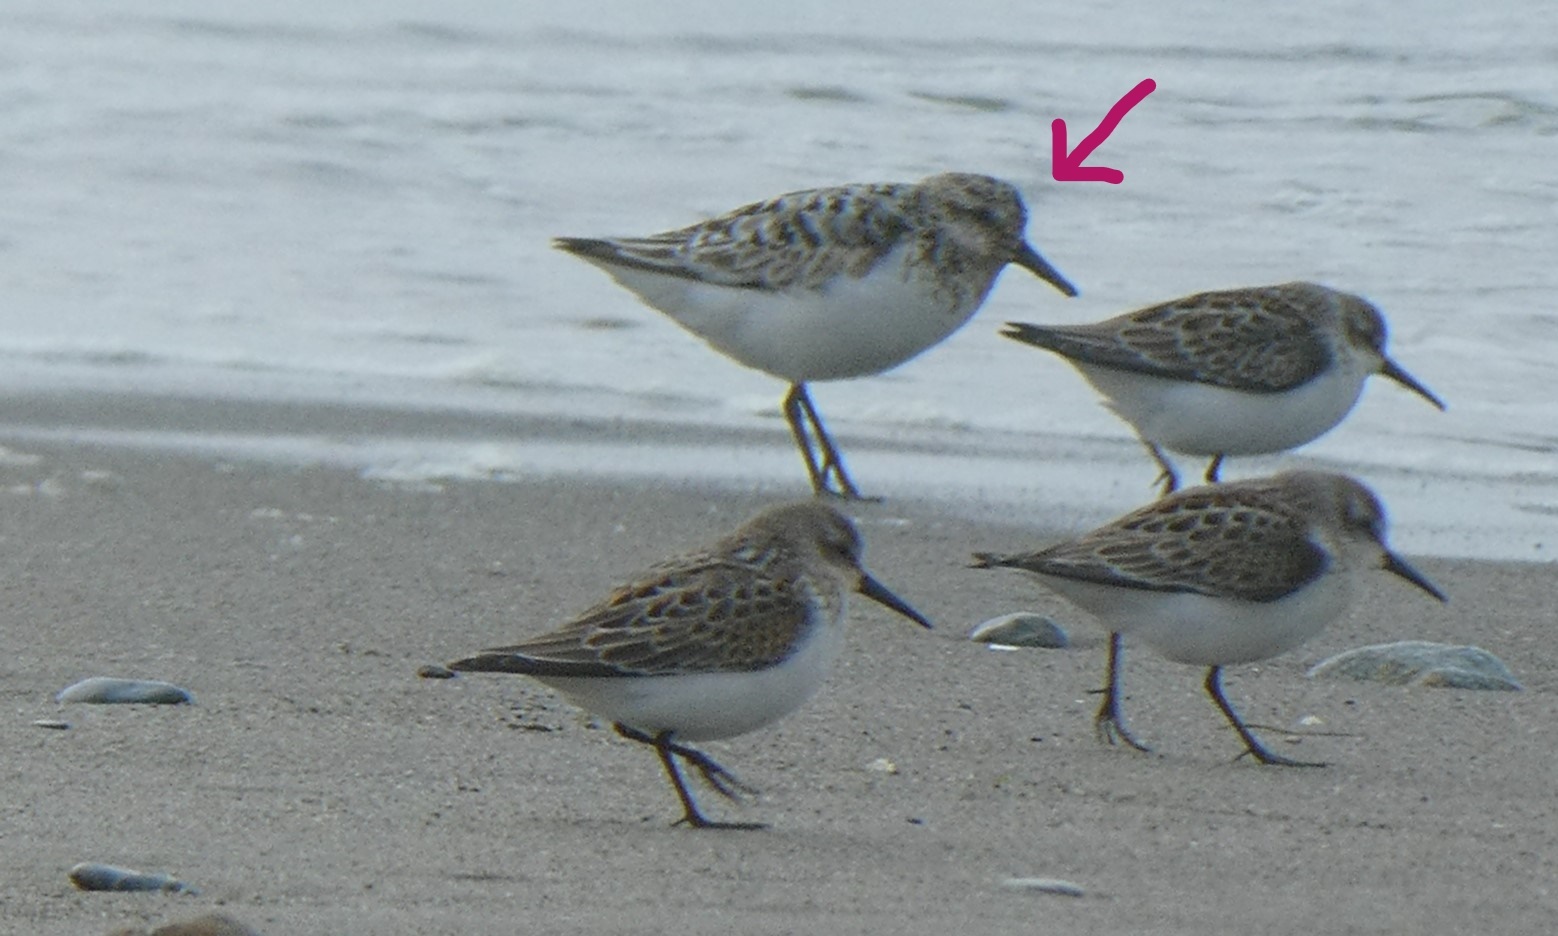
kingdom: Animalia
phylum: Chordata
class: Aves
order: Charadriiformes
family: Scolopacidae
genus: Calidris
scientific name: Calidris alba
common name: Sanderling
